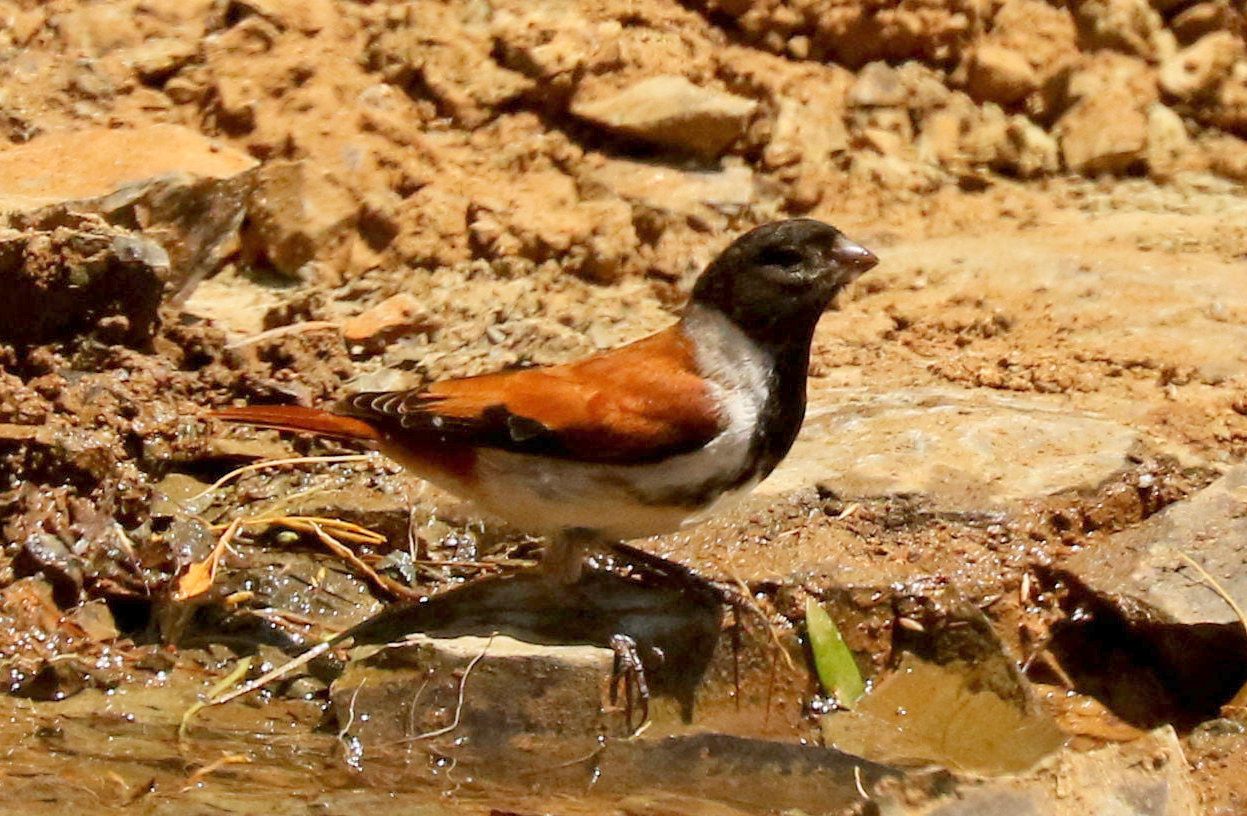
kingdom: Animalia
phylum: Chordata
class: Aves
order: Passeriformes
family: Fringillidae
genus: Serinus
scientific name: Serinus alario
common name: Black-headed canary
